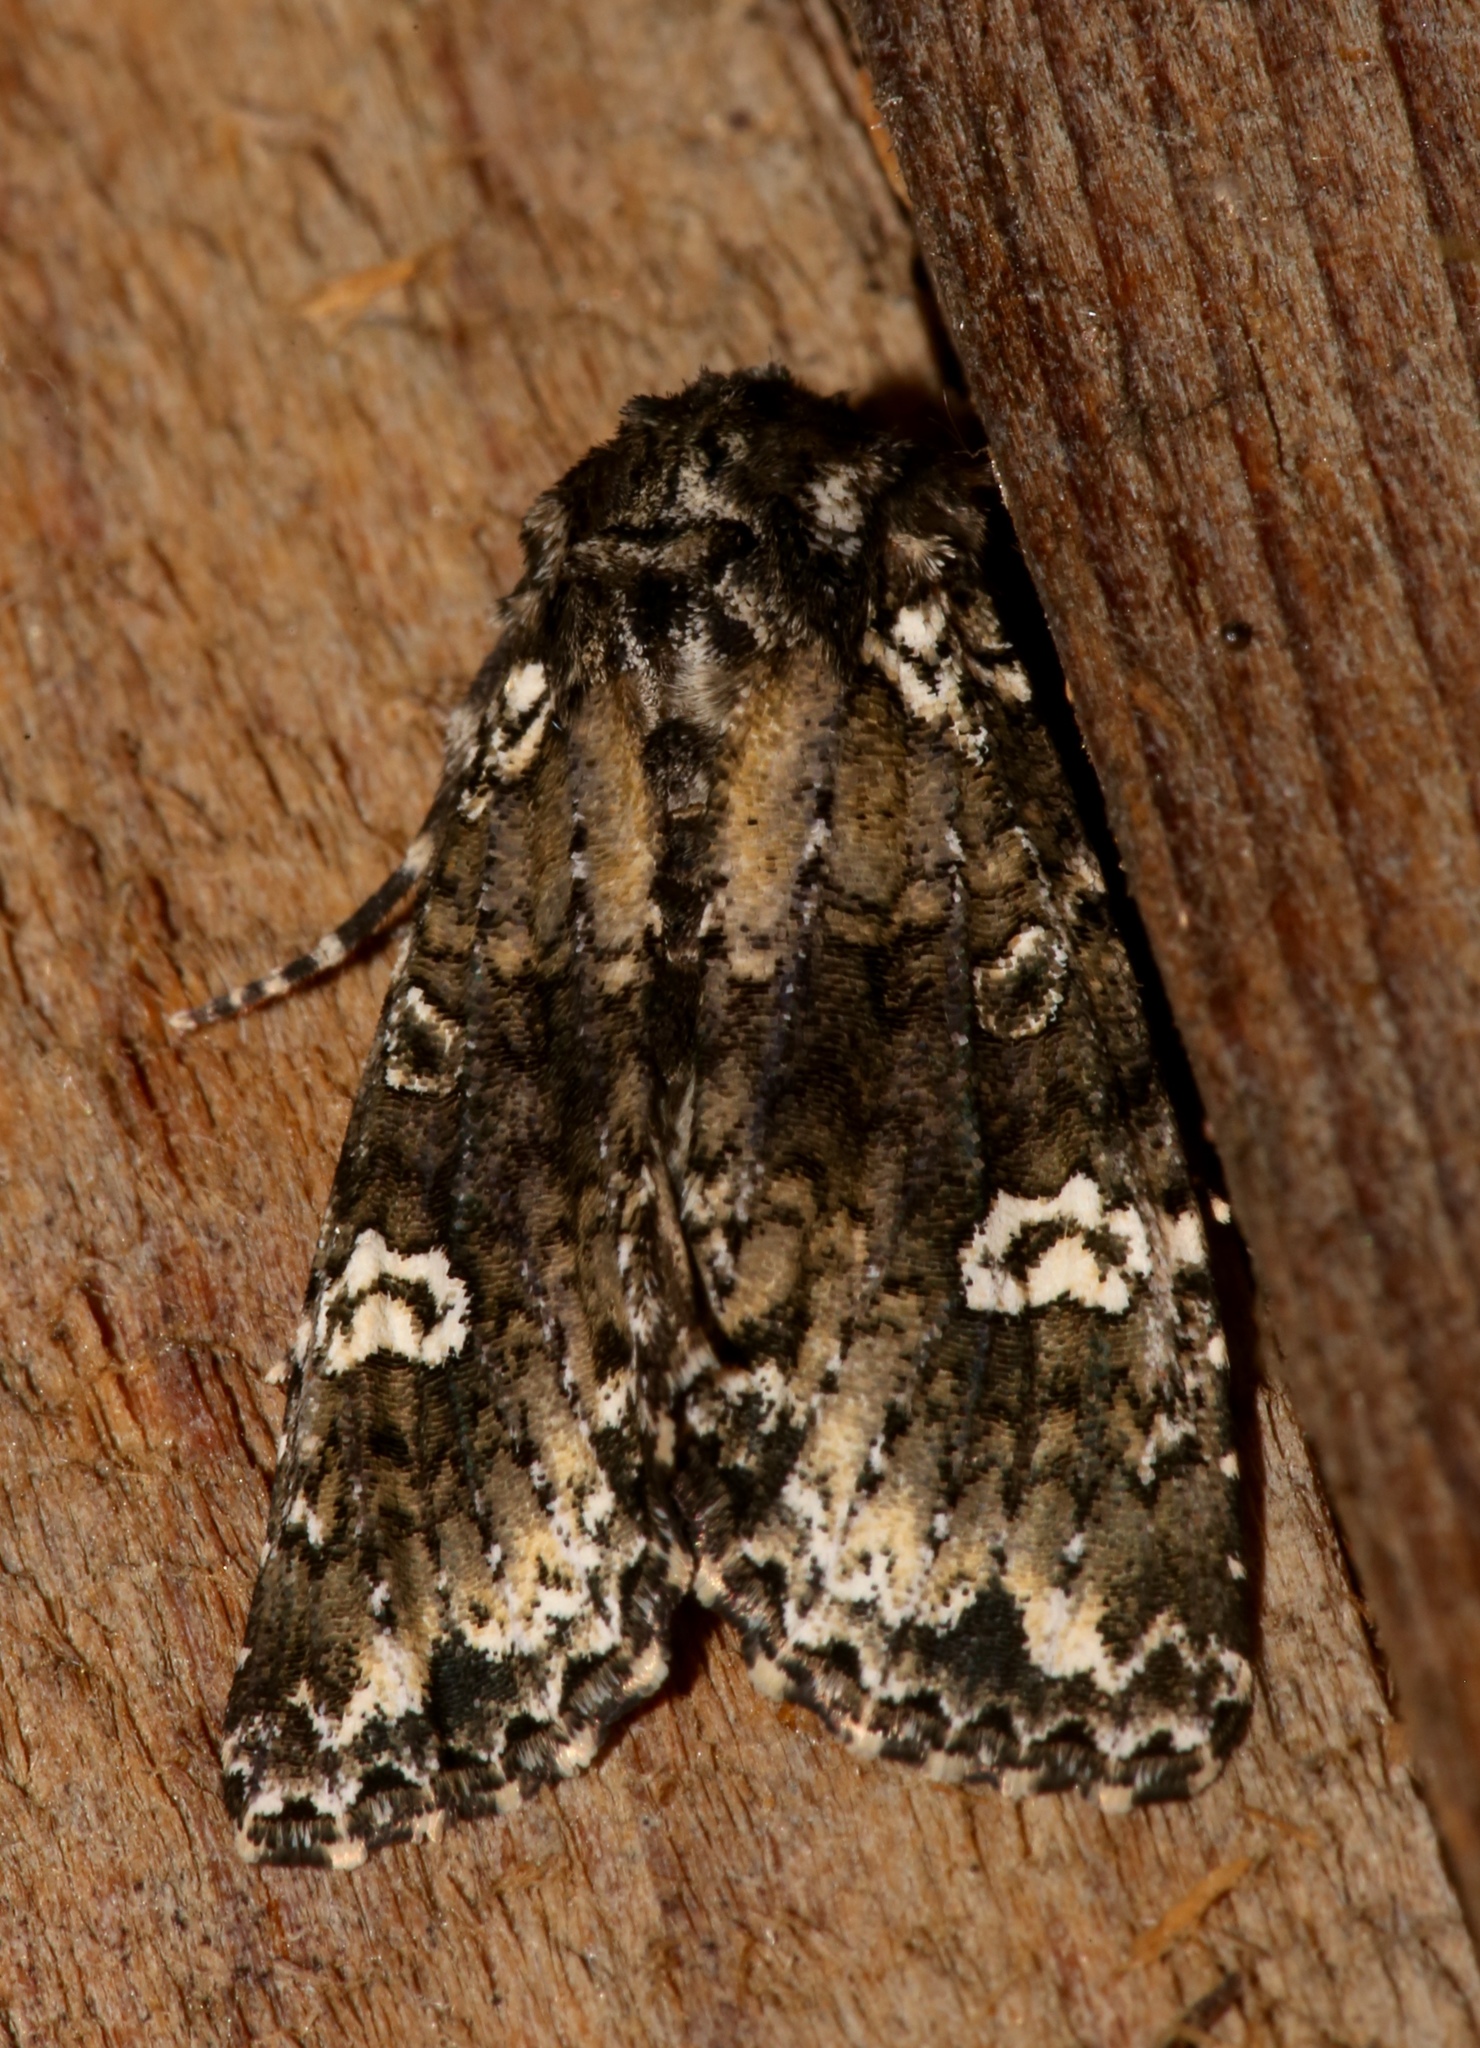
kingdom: Animalia
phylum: Arthropoda
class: Insecta
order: Lepidoptera
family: Noctuidae
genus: Melanchra
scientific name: Melanchra adjuncta
